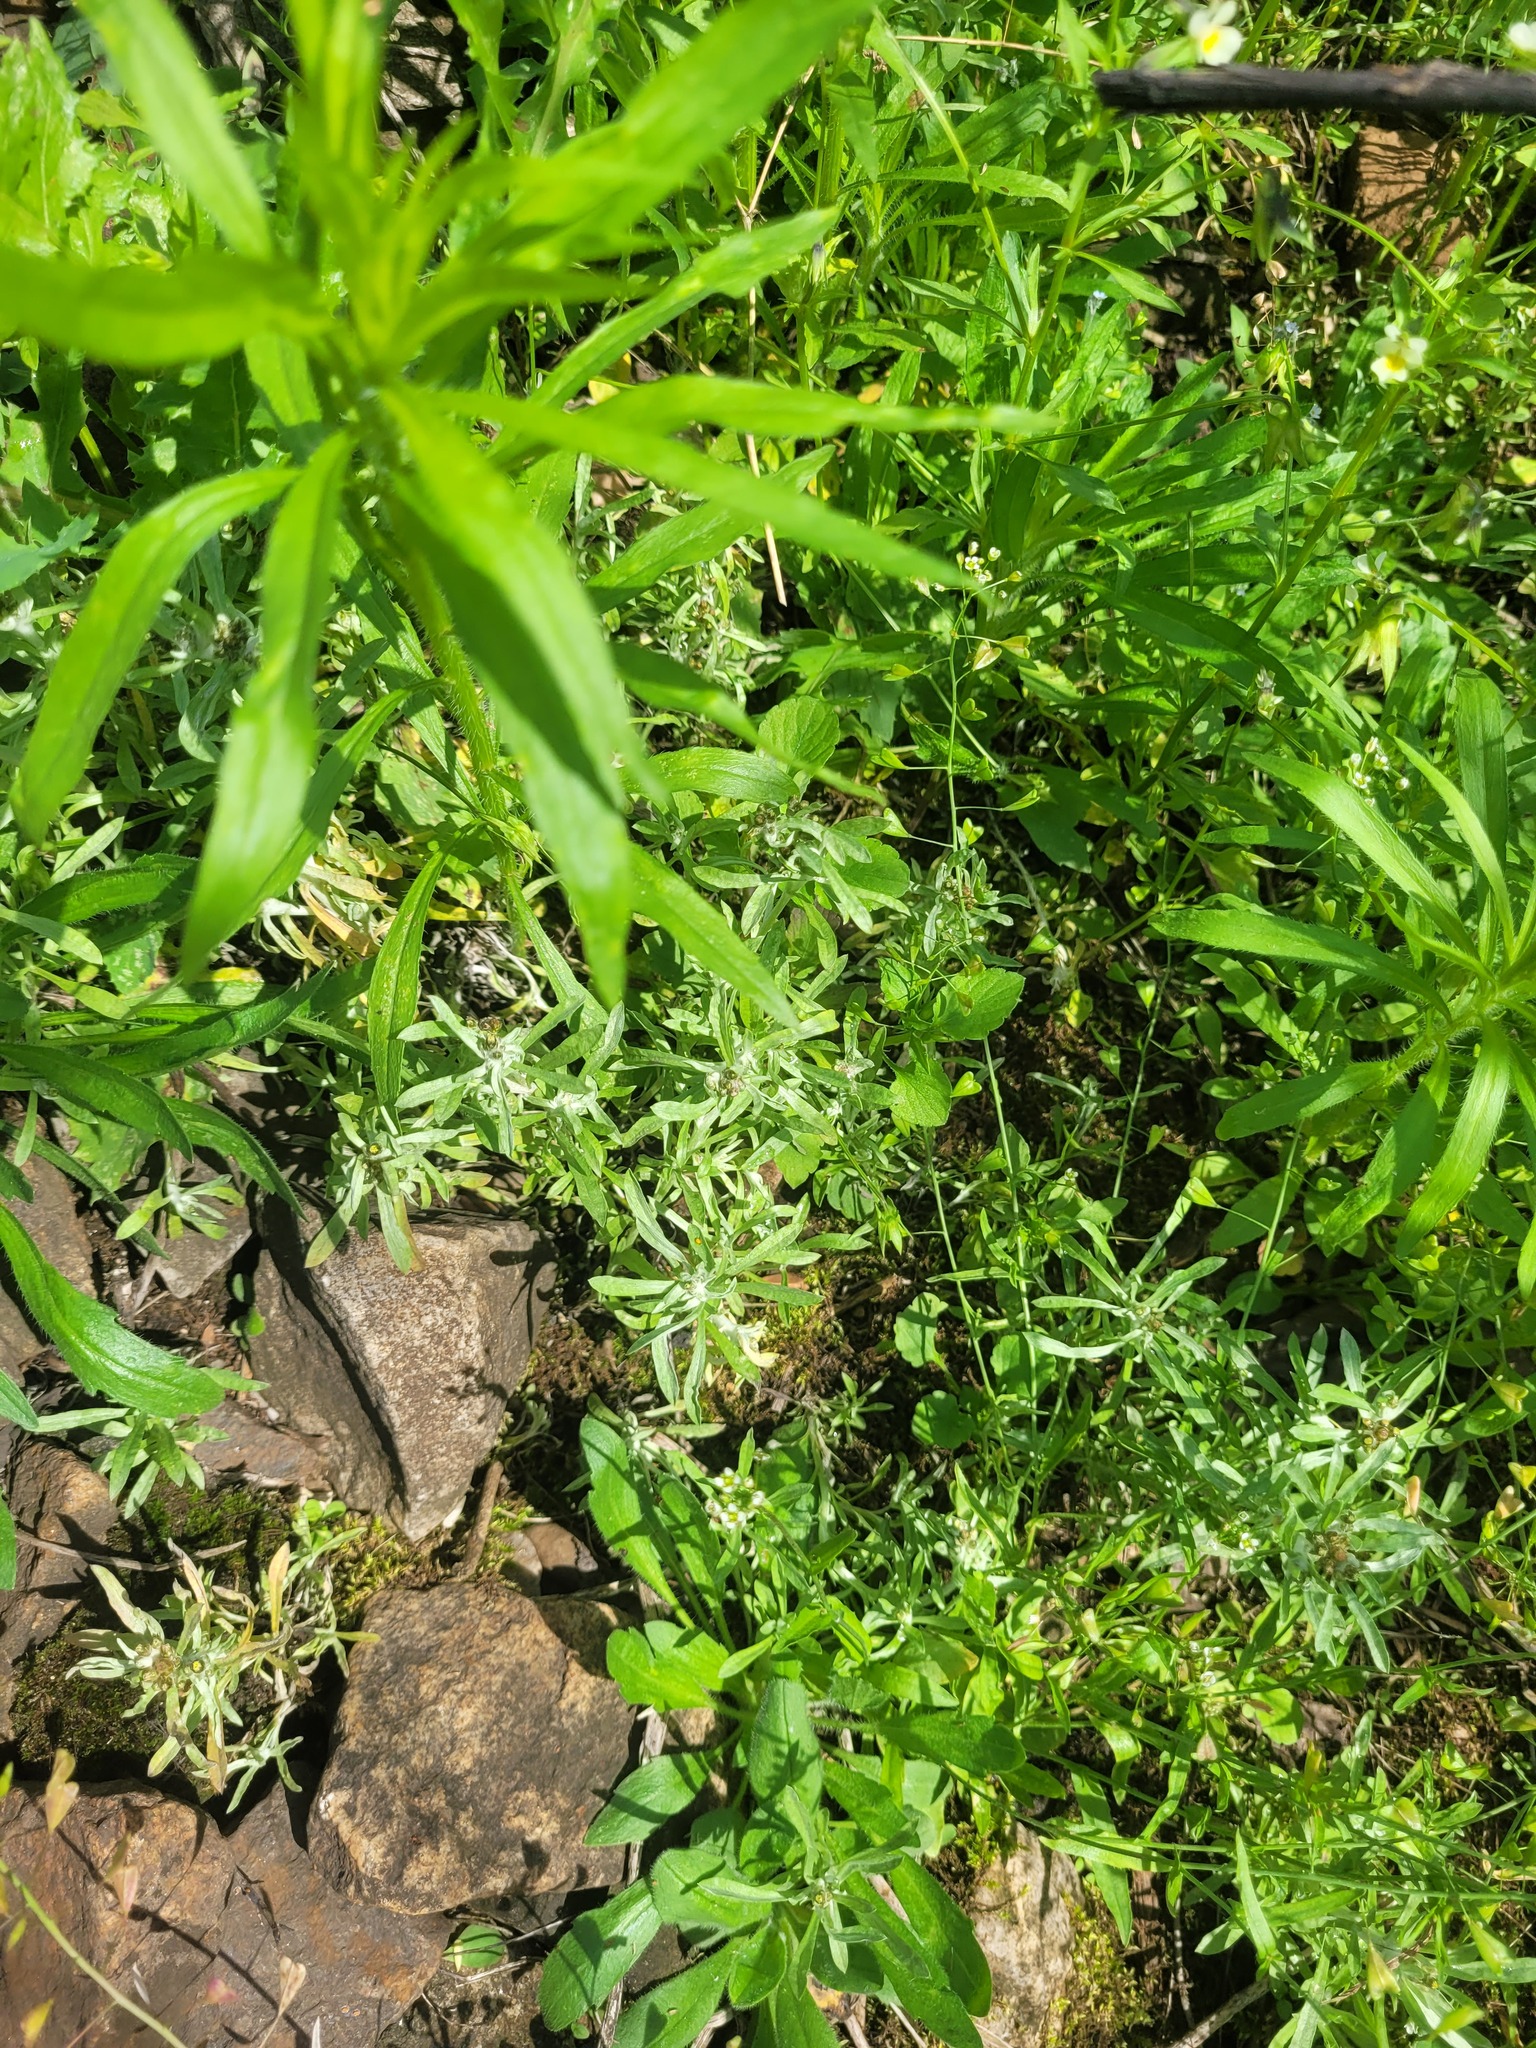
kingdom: Plantae
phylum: Tracheophyta
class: Magnoliopsida
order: Asterales
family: Asteraceae
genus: Gnaphalium
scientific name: Gnaphalium uliginosum
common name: Marsh cudweed
